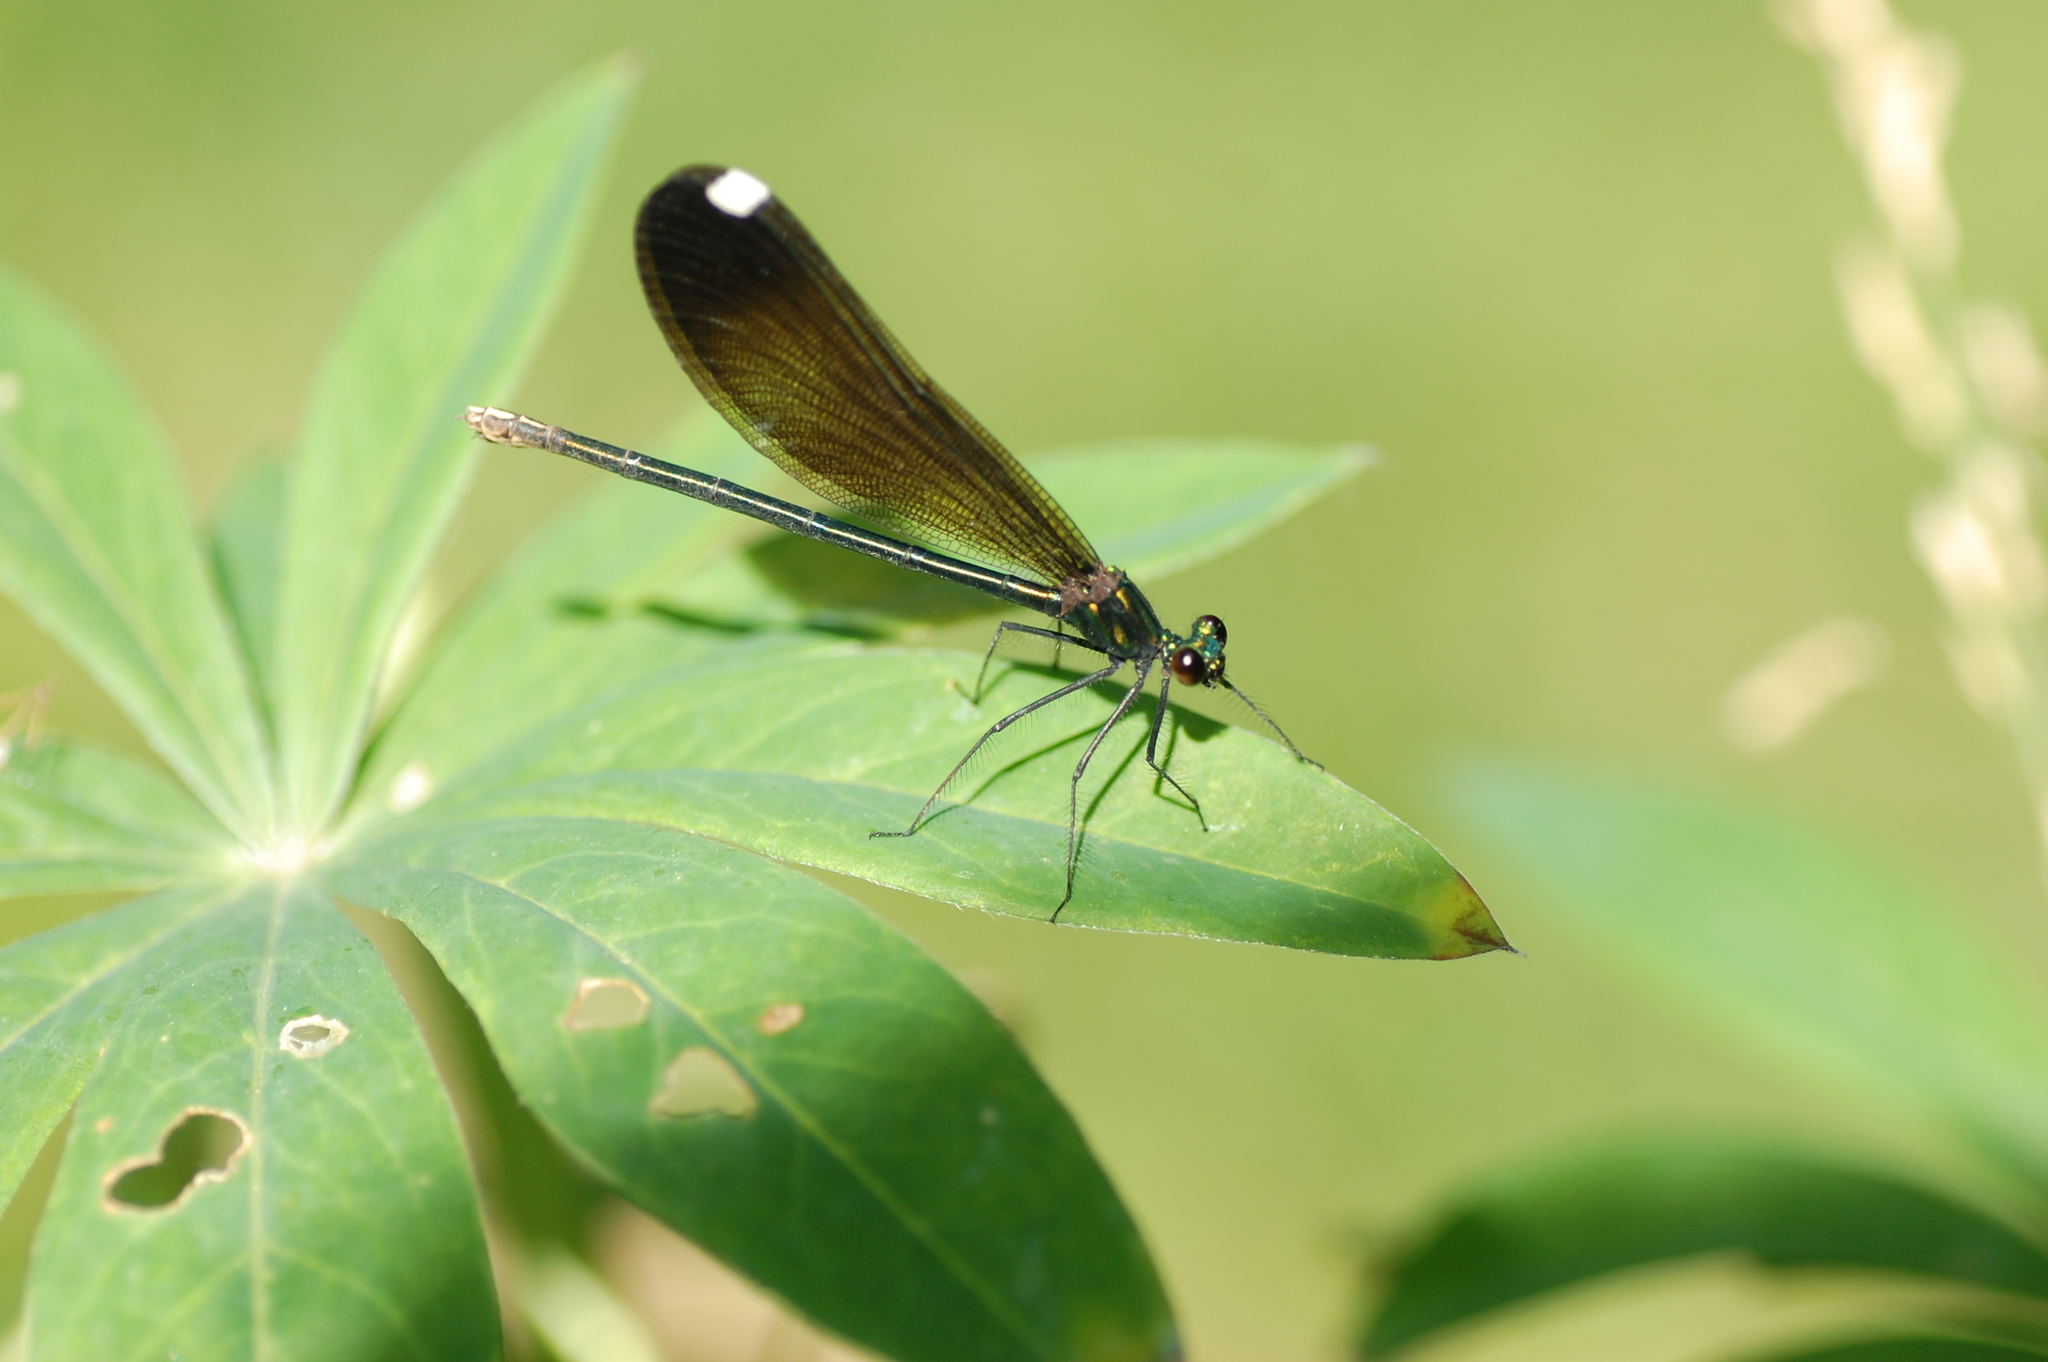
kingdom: Animalia
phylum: Arthropoda
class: Insecta
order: Odonata
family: Calopterygidae
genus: Calopteryx
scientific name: Calopteryx maculata
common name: Ebony jewelwing
